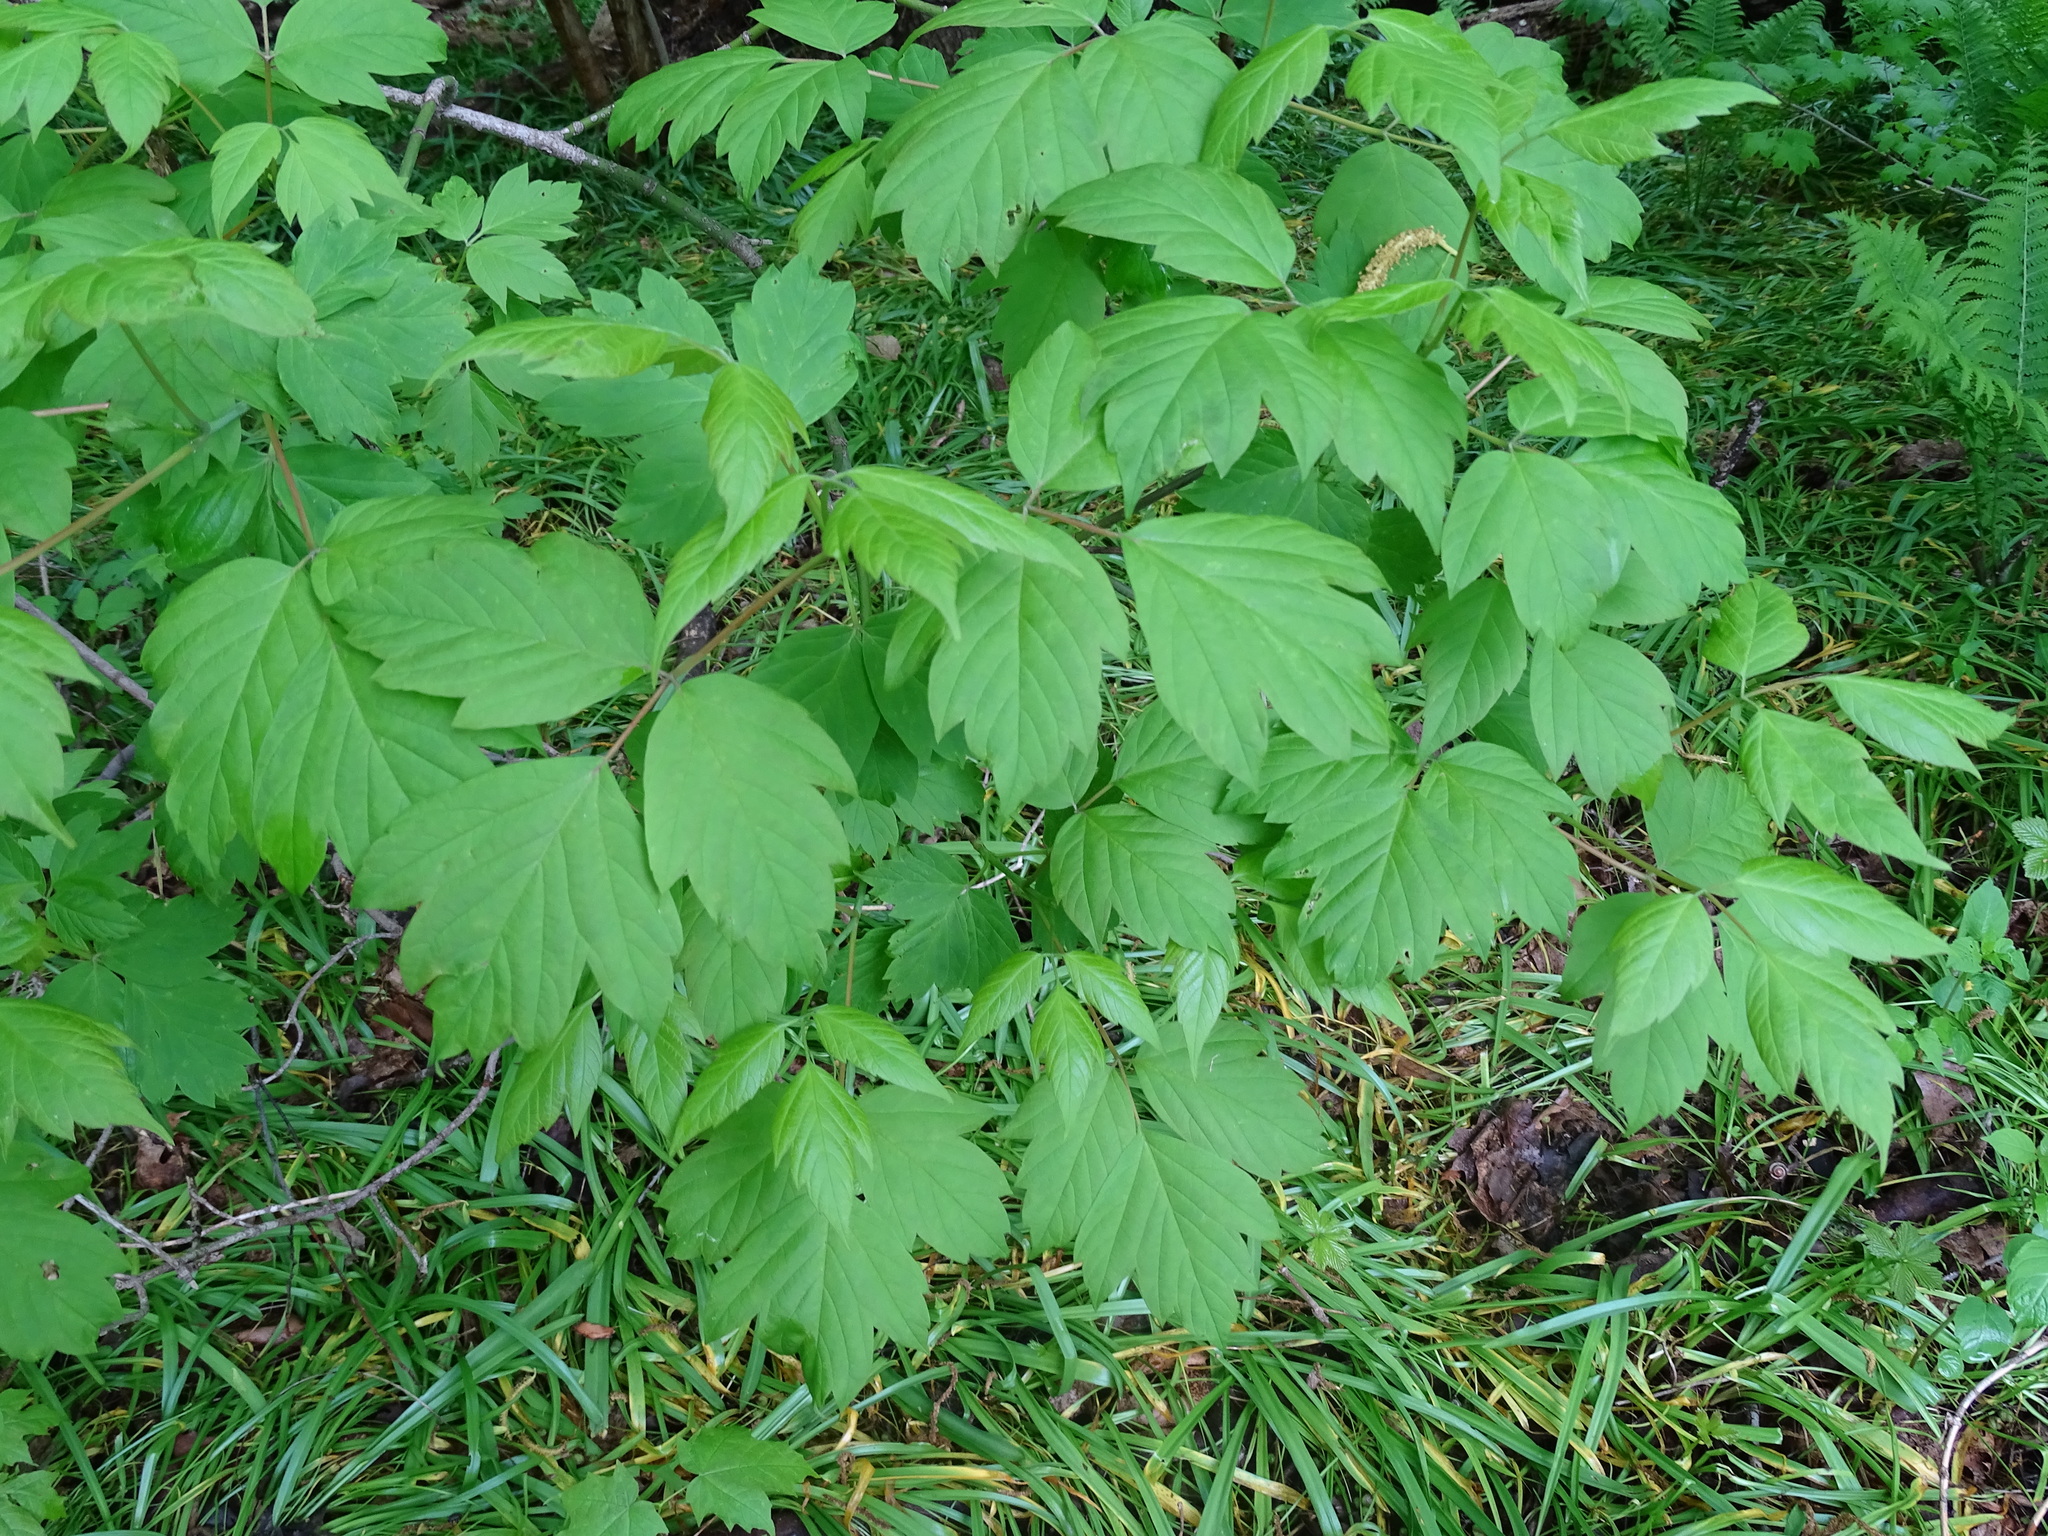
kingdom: Plantae
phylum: Tracheophyta
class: Magnoliopsida
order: Sapindales
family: Sapindaceae
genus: Acer
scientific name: Acer negundo
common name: Ashleaf maple
